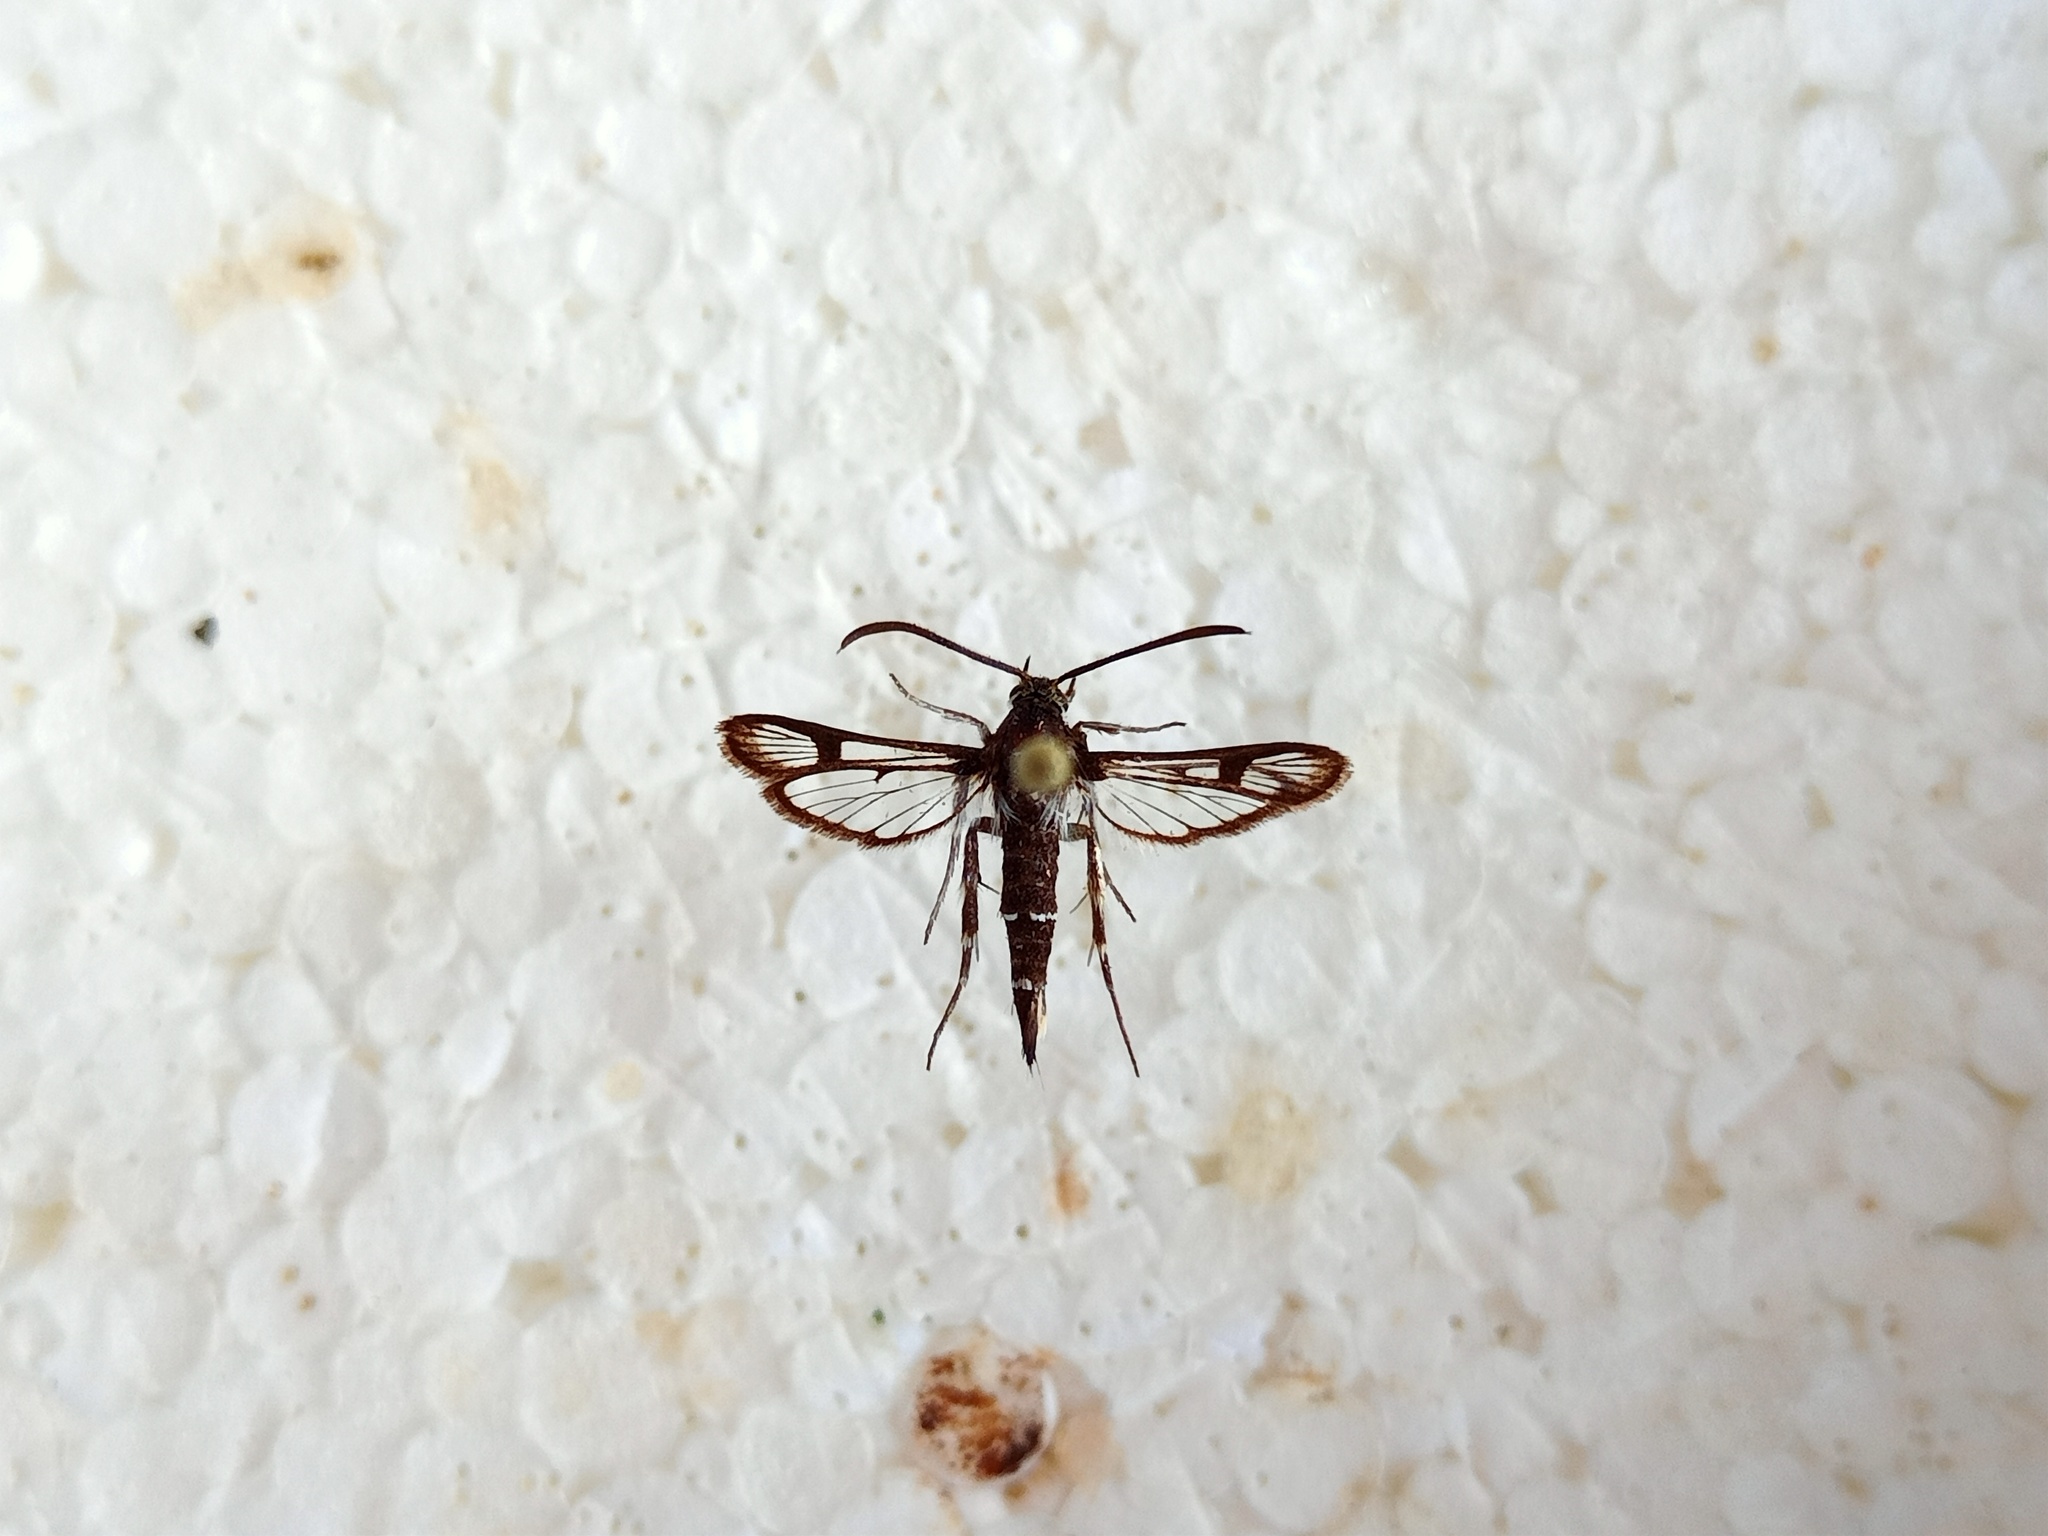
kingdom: Animalia
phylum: Arthropoda
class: Insecta
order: Lepidoptera
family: Sesiidae
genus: Pyropteron
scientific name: Pyropteron leucomelaena
